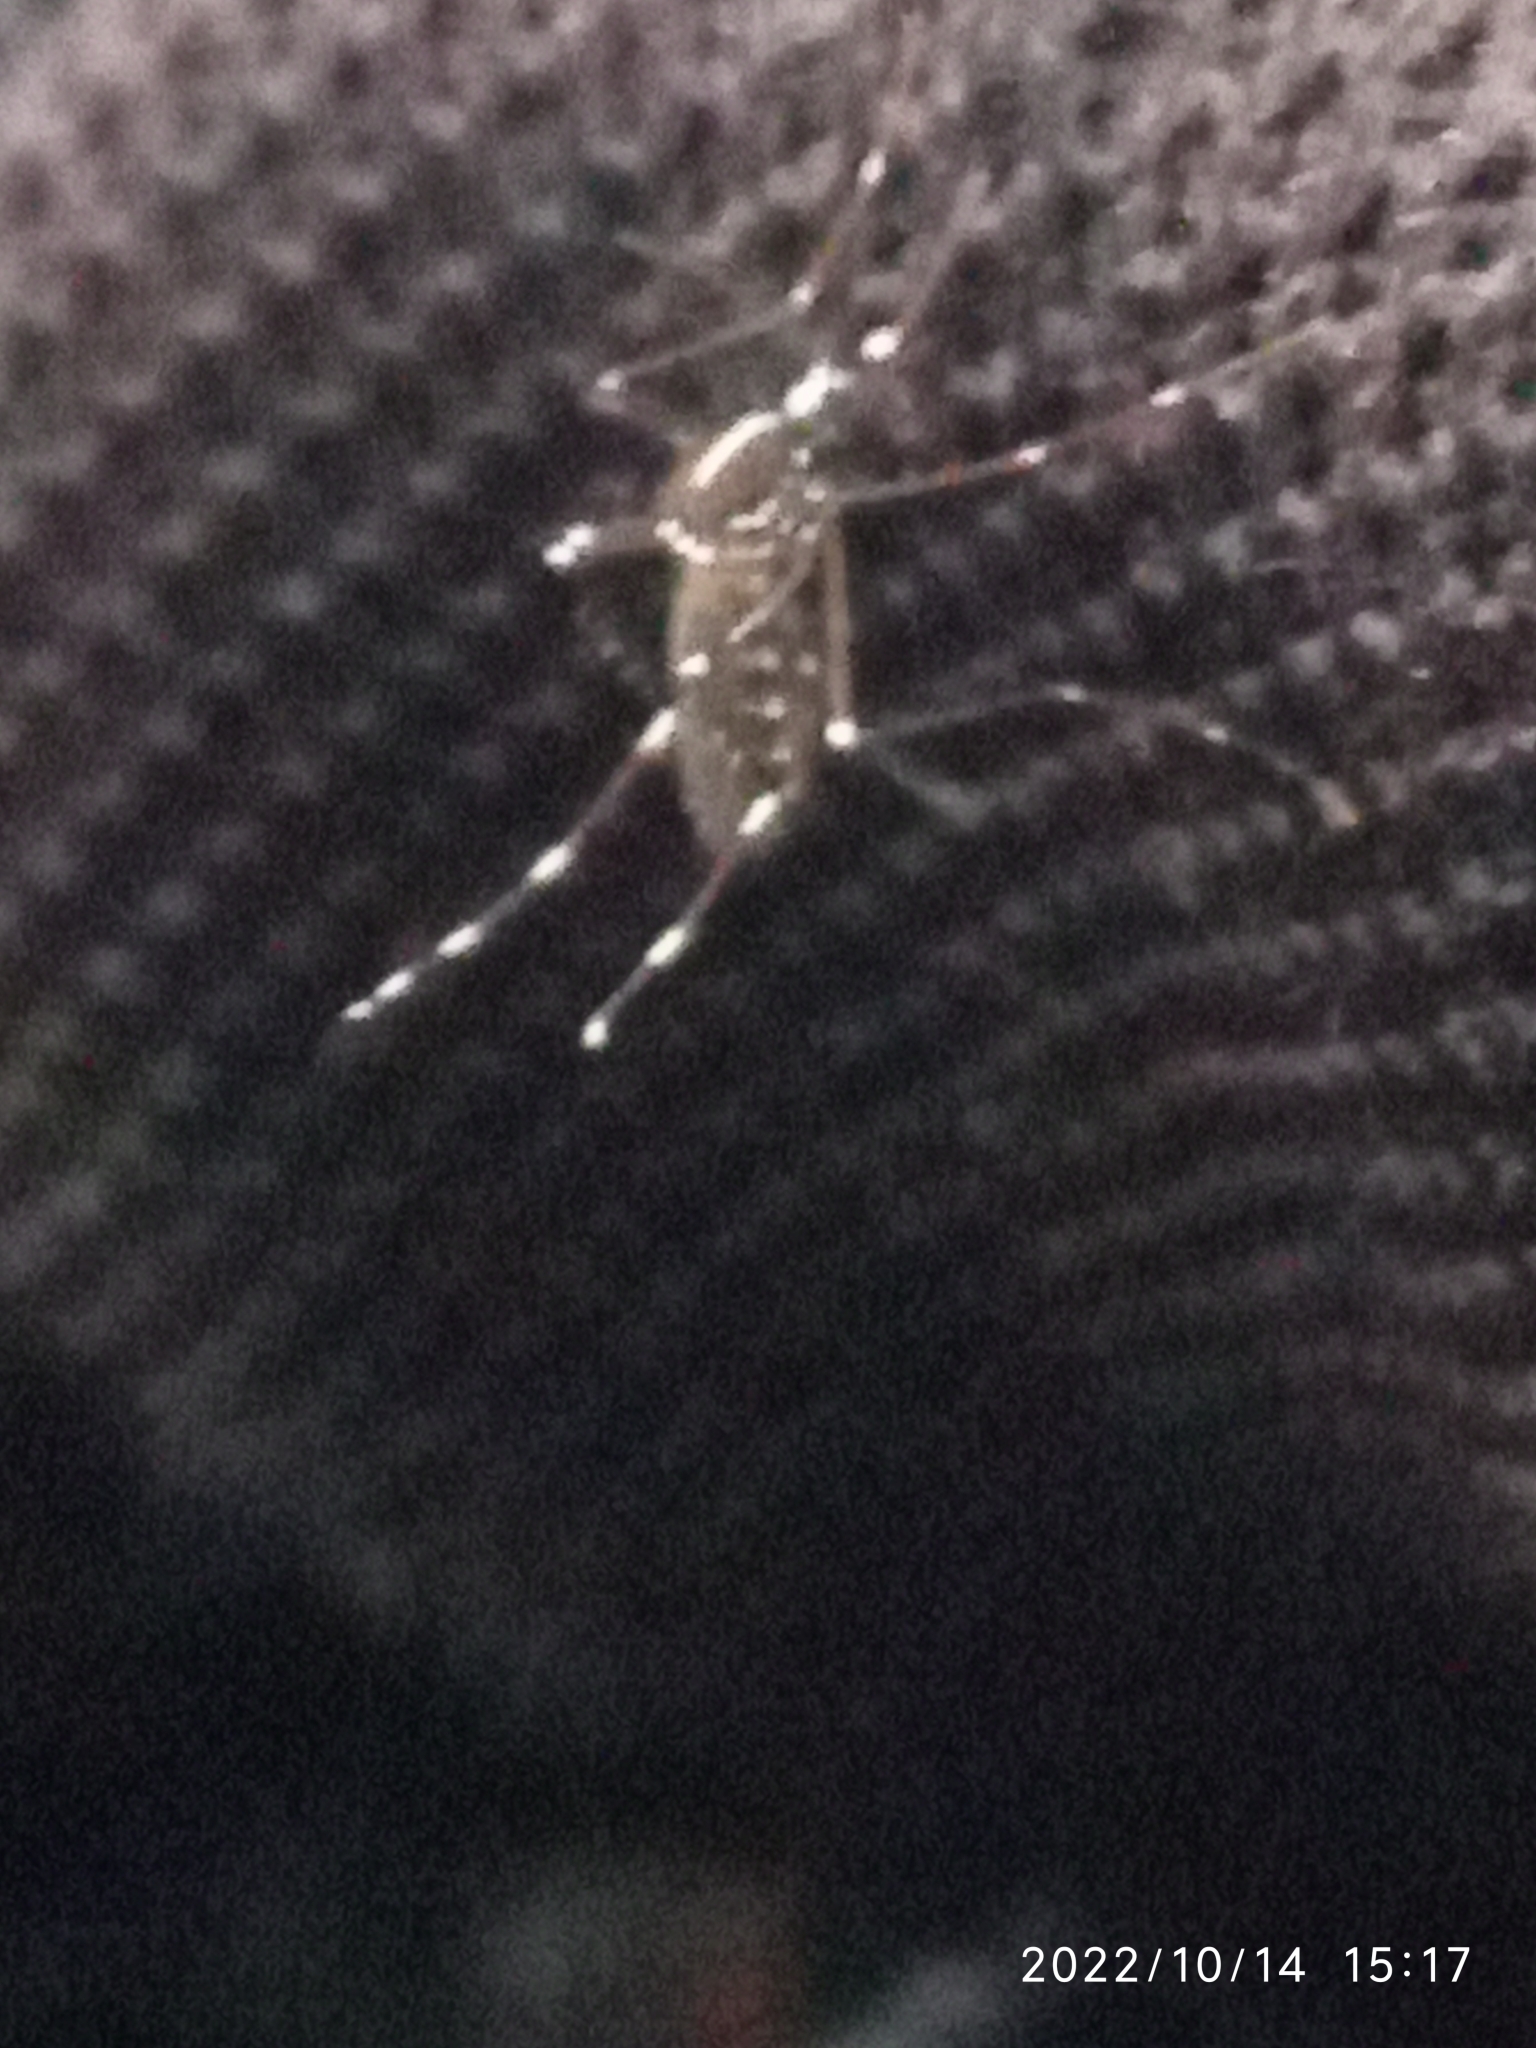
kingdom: Animalia
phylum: Arthropoda
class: Insecta
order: Diptera
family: Culicidae
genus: Aedes
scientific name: Aedes albopictus
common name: Tiger mosquito
